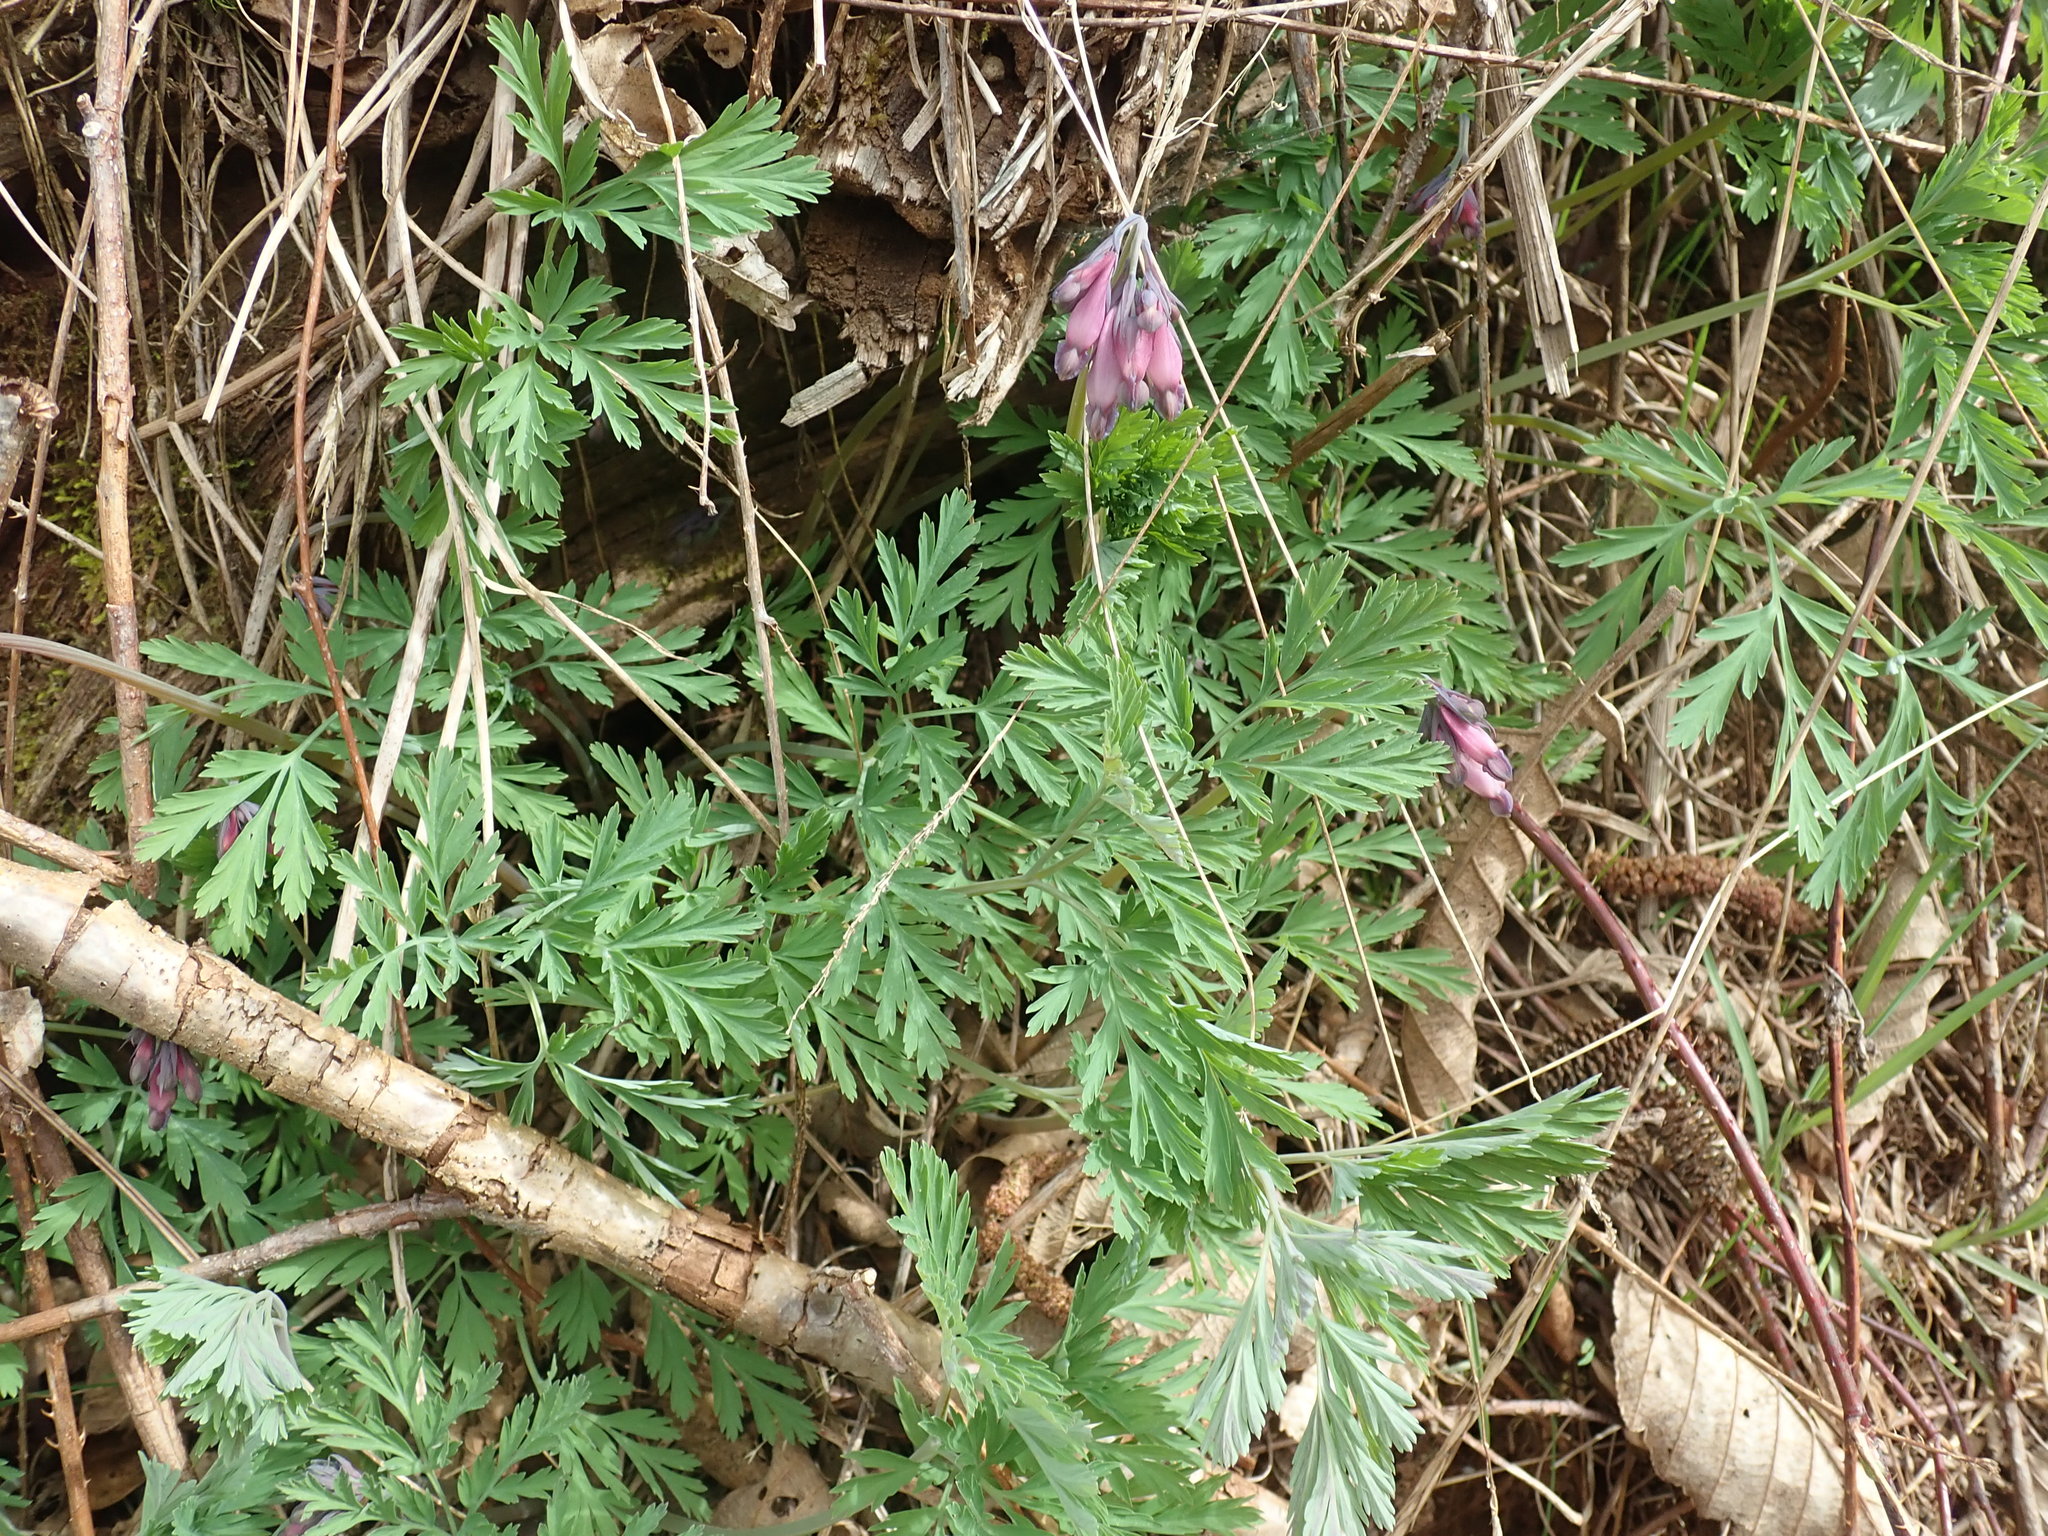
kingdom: Plantae
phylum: Tracheophyta
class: Magnoliopsida
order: Ranunculales
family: Papaveraceae
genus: Dicentra
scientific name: Dicentra formosa
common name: Bleeding-heart
